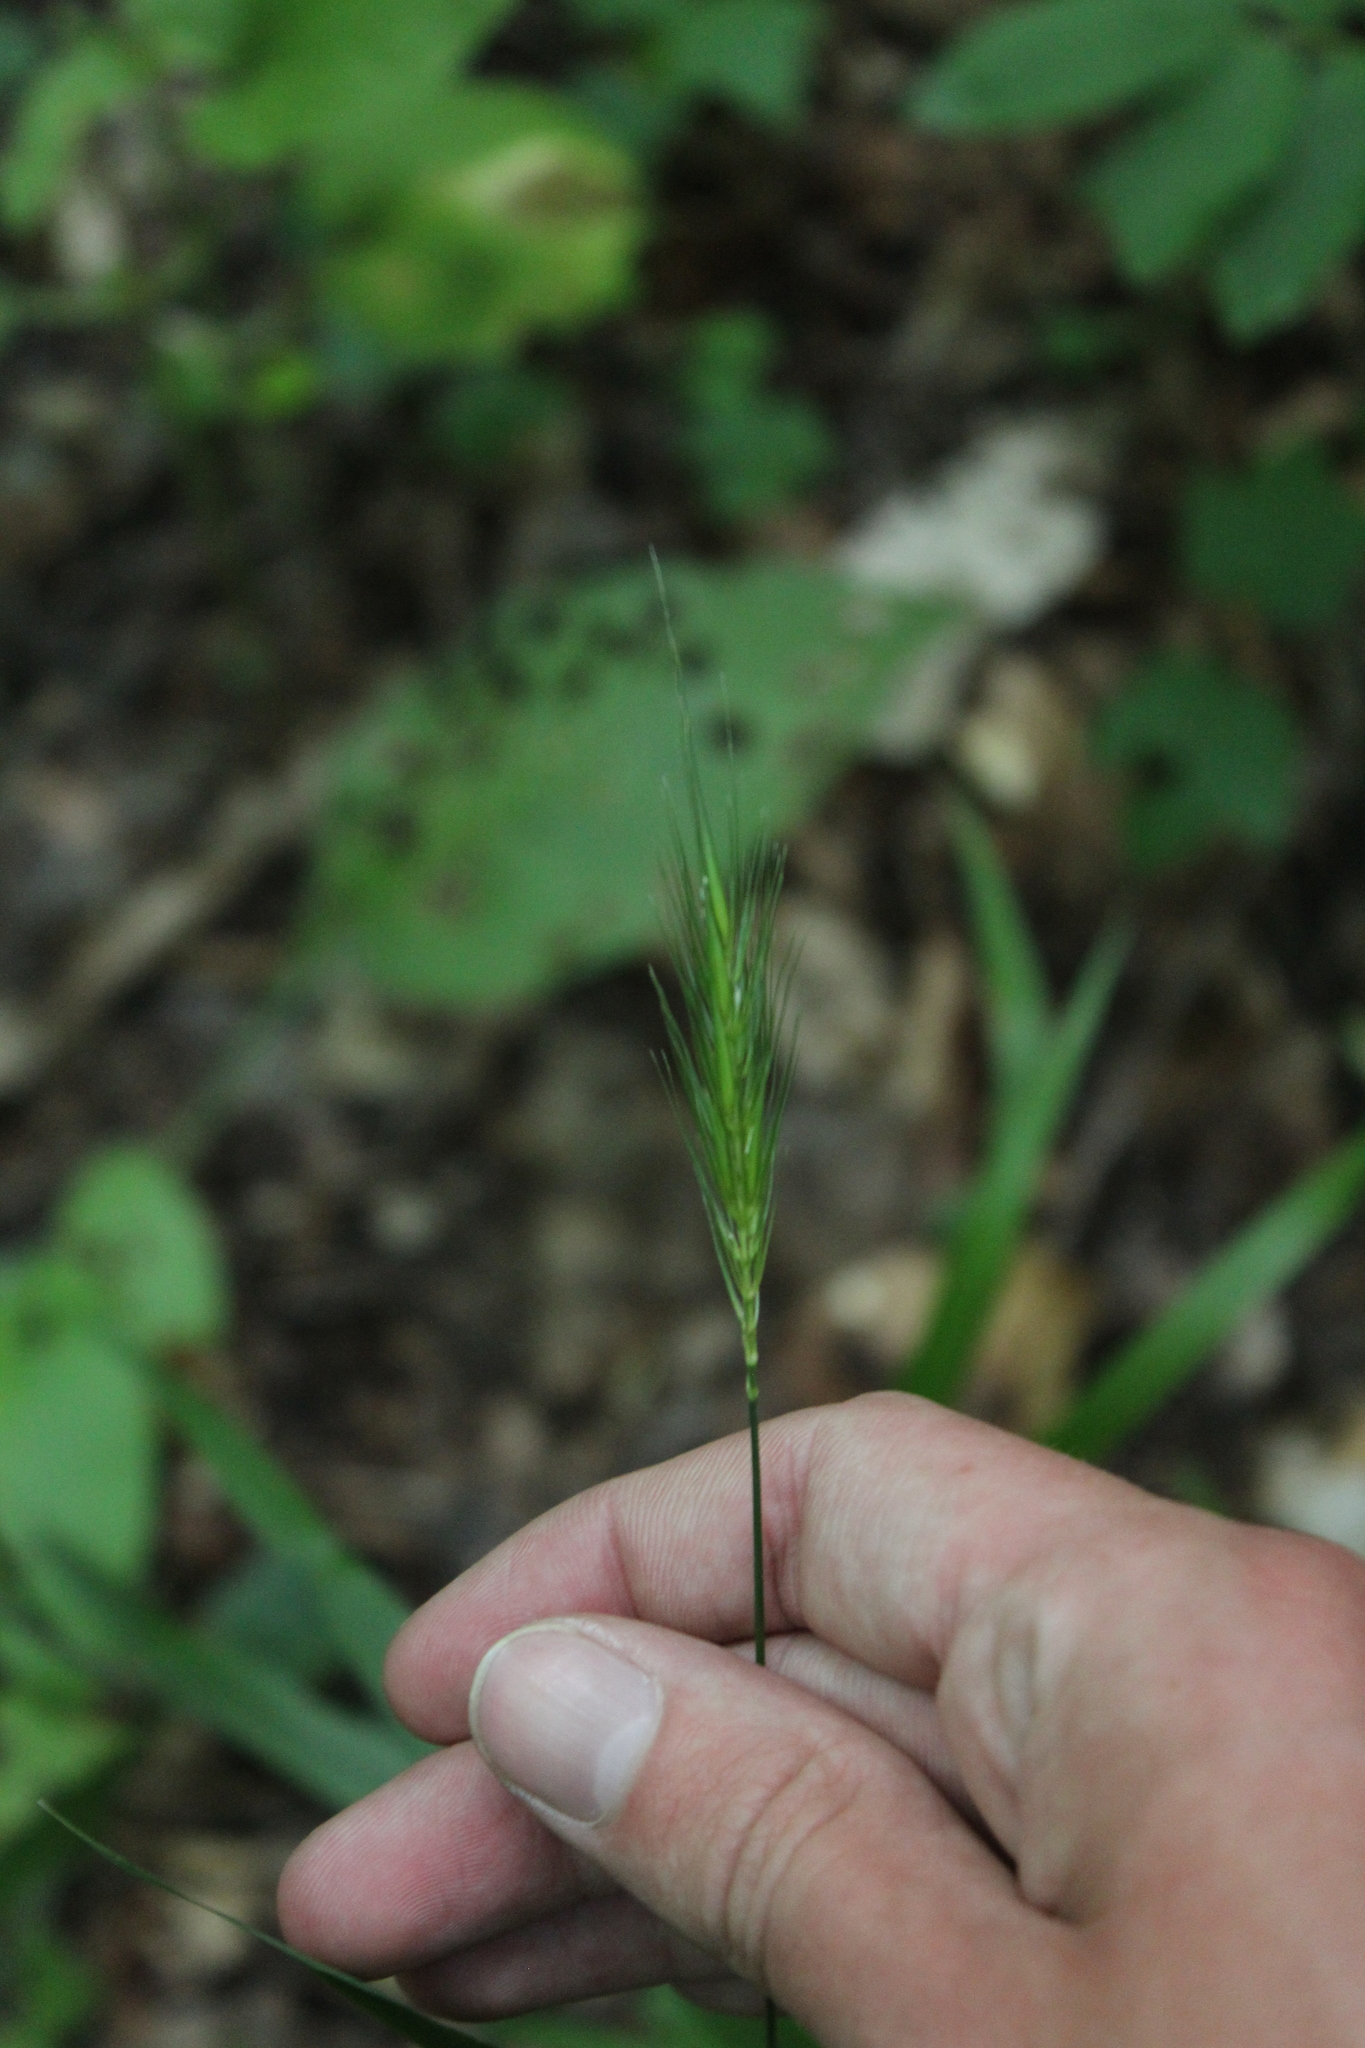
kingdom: Plantae
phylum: Tracheophyta
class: Liliopsida
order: Poales
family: Poaceae
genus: Hordelymus
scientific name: Hordelymus europaeus
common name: Wood-barley
